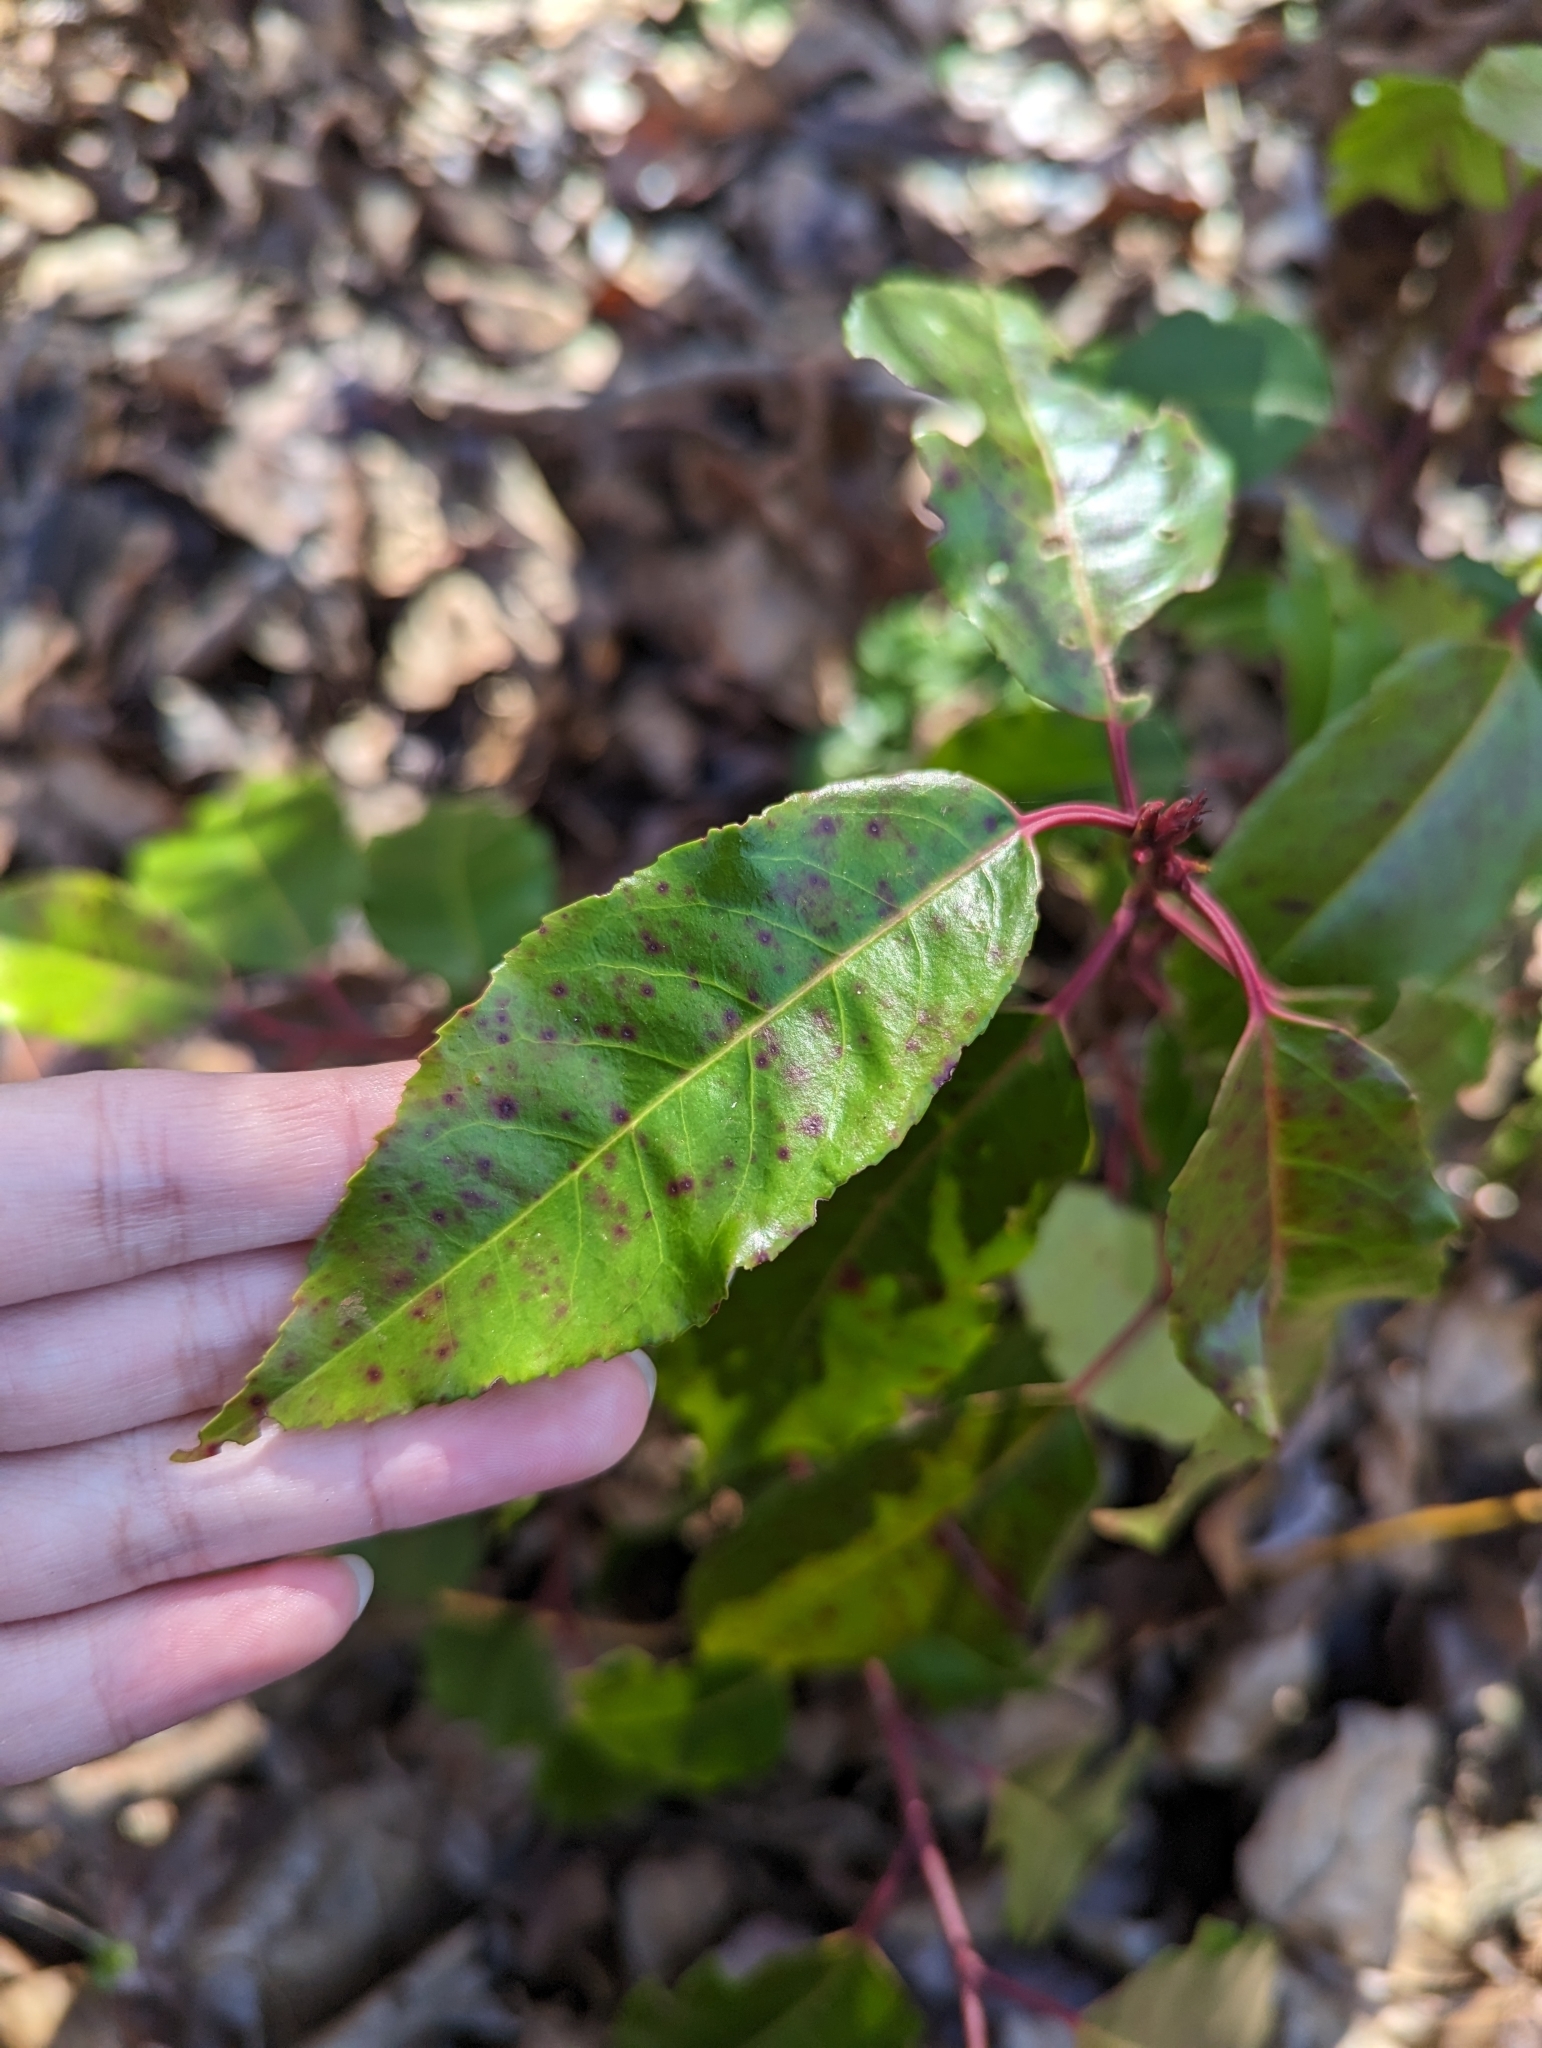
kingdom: Plantae
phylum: Tracheophyta
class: Magnoliopsida
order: Rosales
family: Rosaceae
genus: Prunus
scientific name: Prunus lusitanica
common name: Portugal laurel
